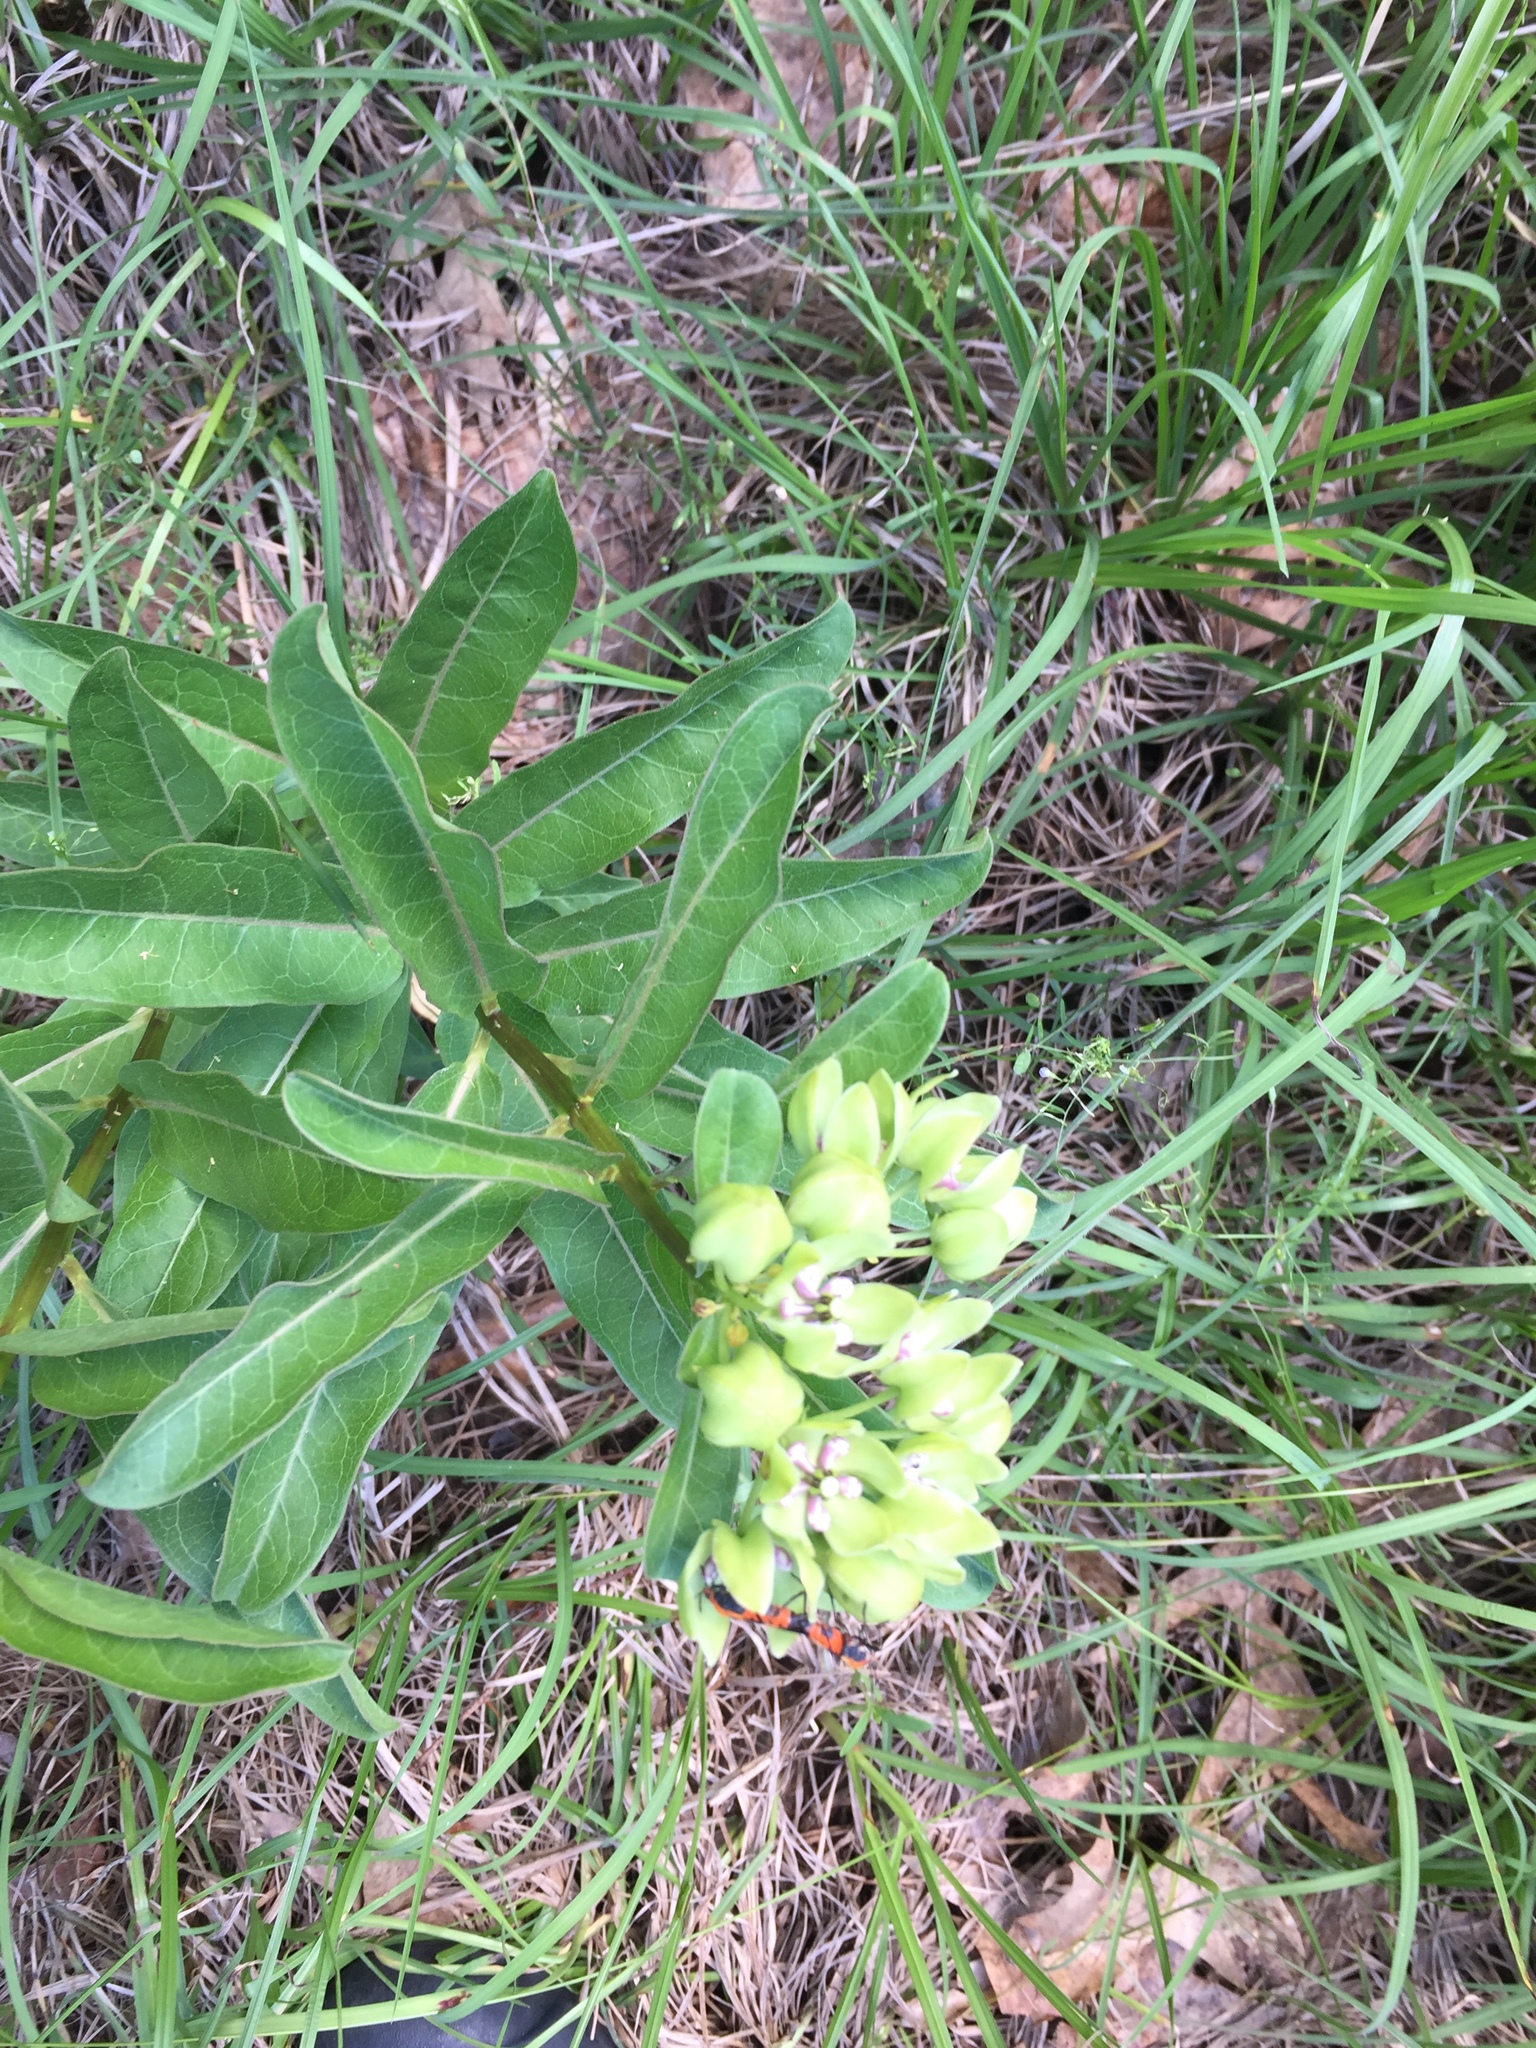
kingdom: Plantae
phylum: Tracheophyta
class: Magnoliopsida
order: Gentianales
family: Apocynaceae
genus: Asclepias
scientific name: Asclepias viridis
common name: Antelope-horns
